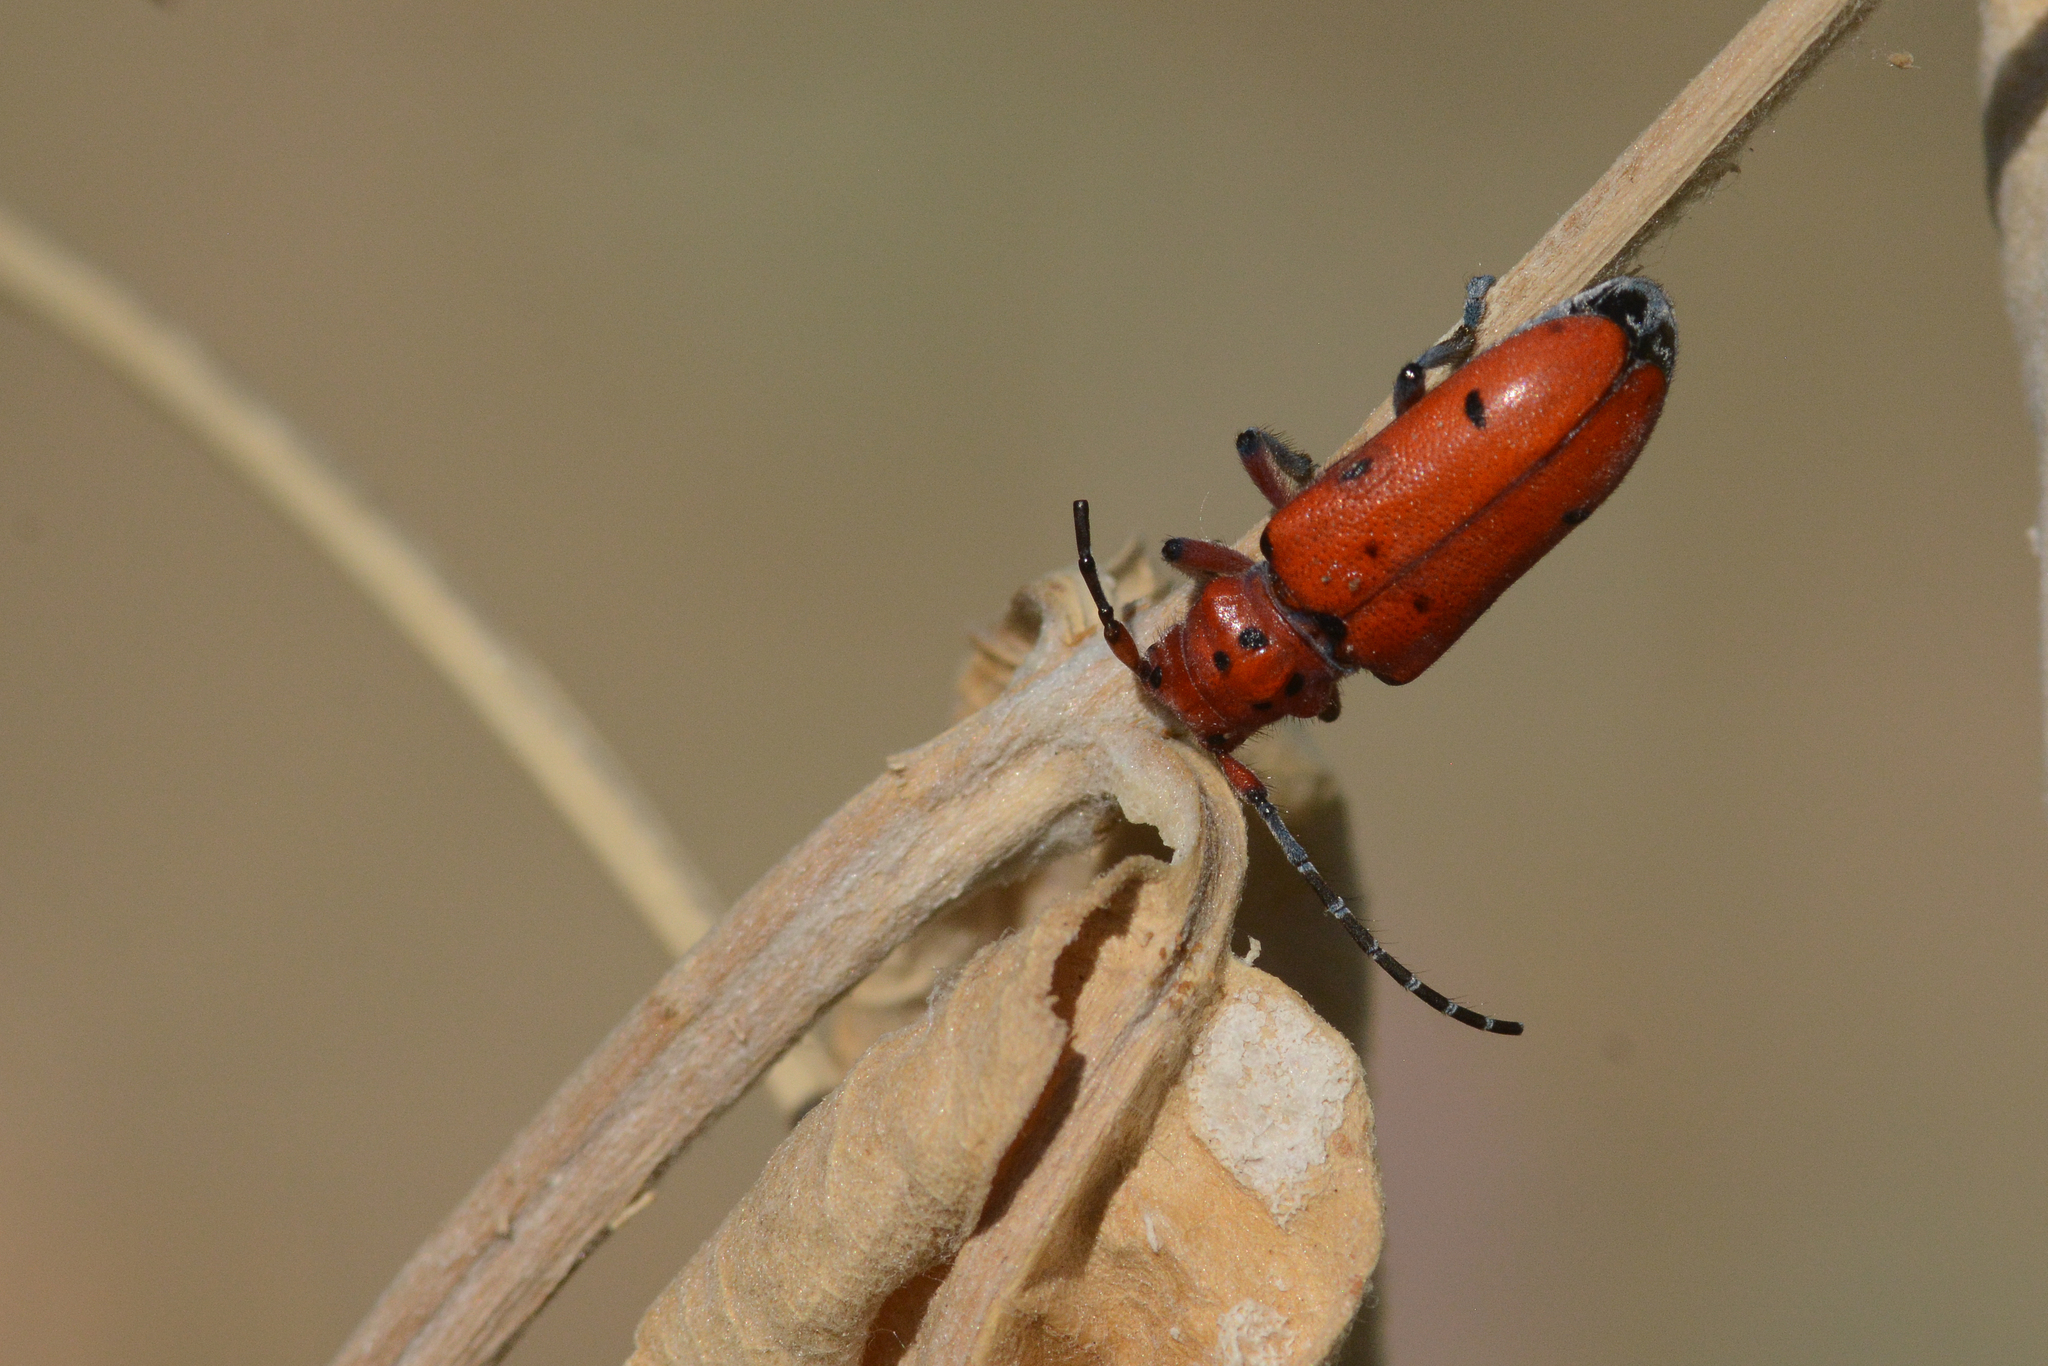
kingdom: Animalia
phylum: Arthropoda
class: Insecta
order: Coleoptera
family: Cerambycidae
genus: Tetraopes
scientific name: Tetraopes femoratus
